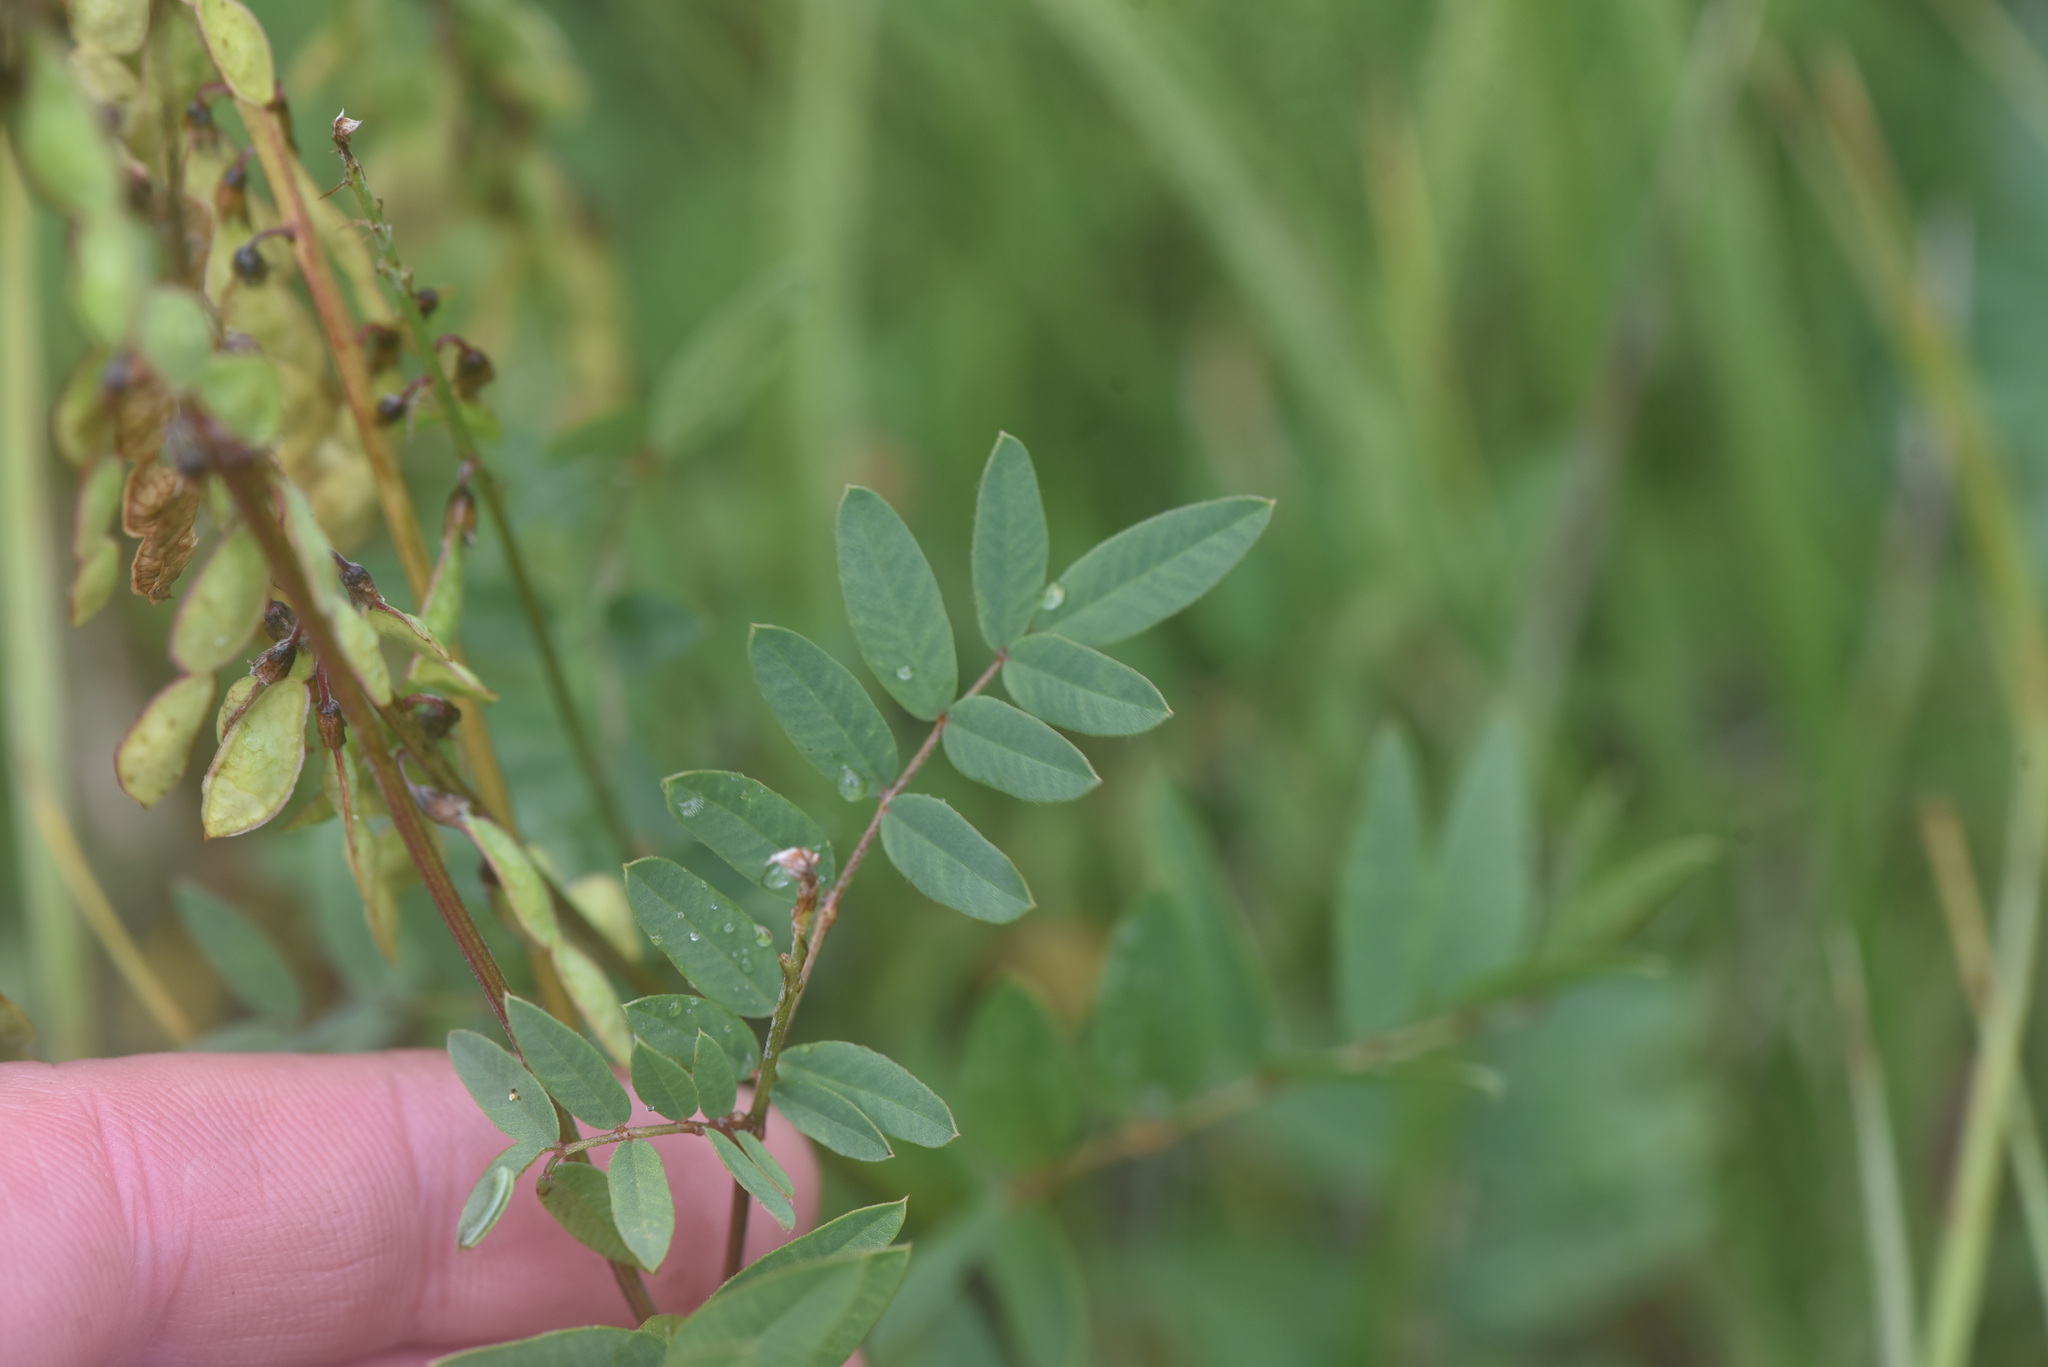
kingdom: Plantae
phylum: Tracheophyta
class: Magnoliopsida
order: Fabales
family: Fabaceae
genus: Hedysarum
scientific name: Hedysarum
